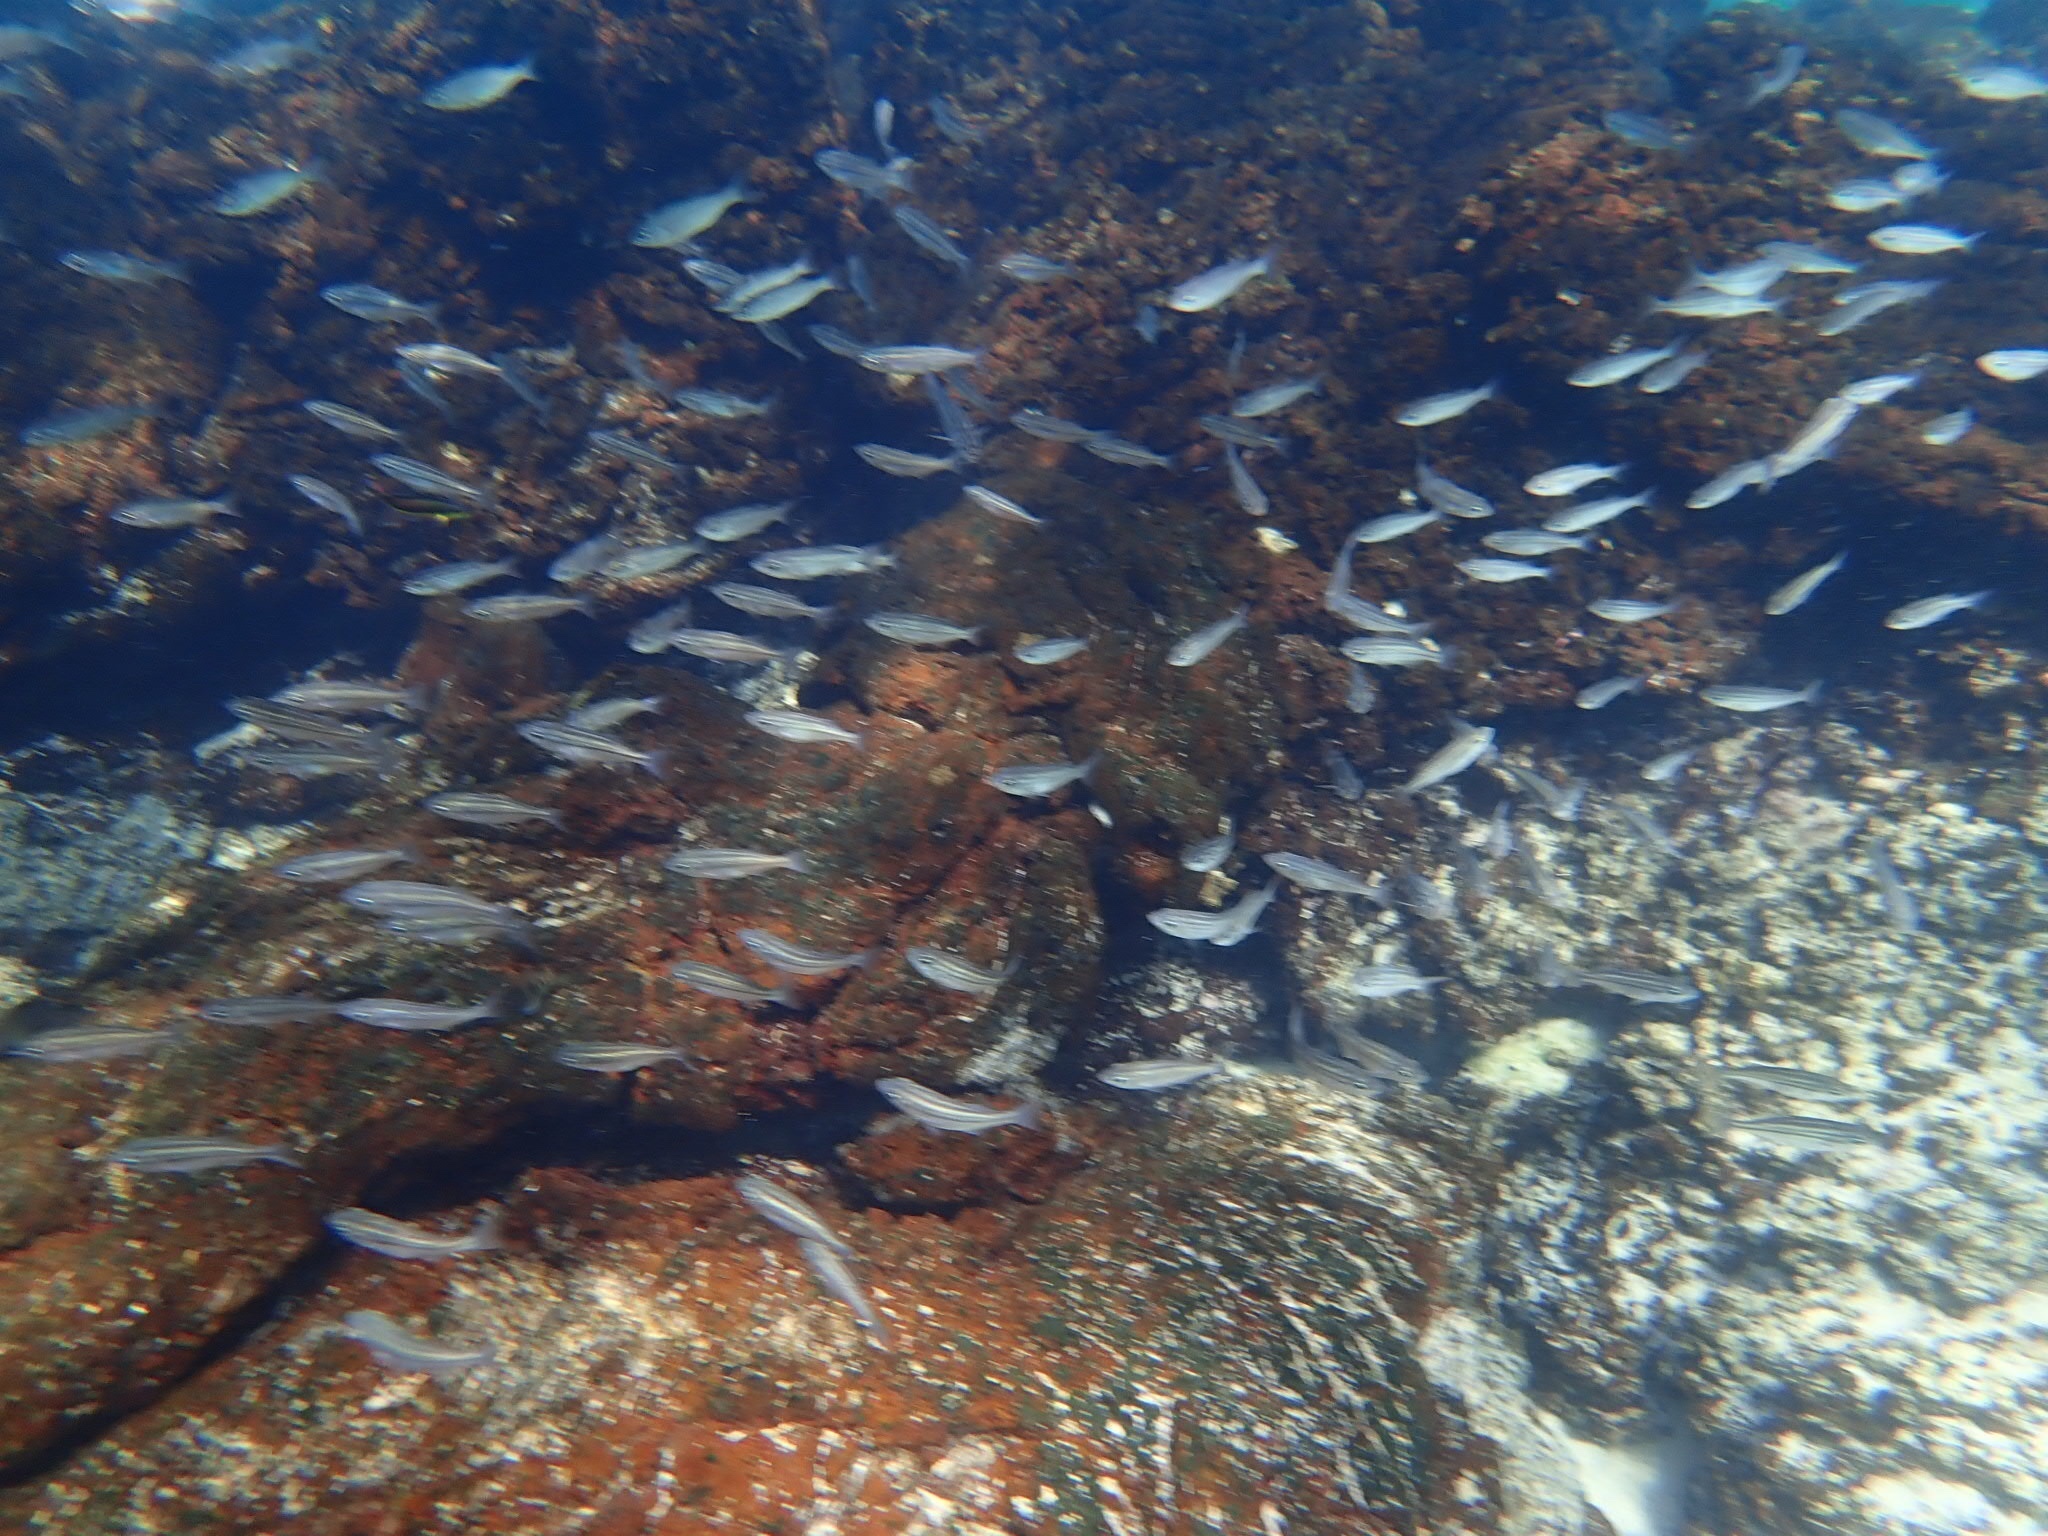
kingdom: Animalia
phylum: Chordata
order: Perciformes
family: Haemulidae
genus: Xenocys
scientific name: Xenocys jessiae
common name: Black-striped salema
